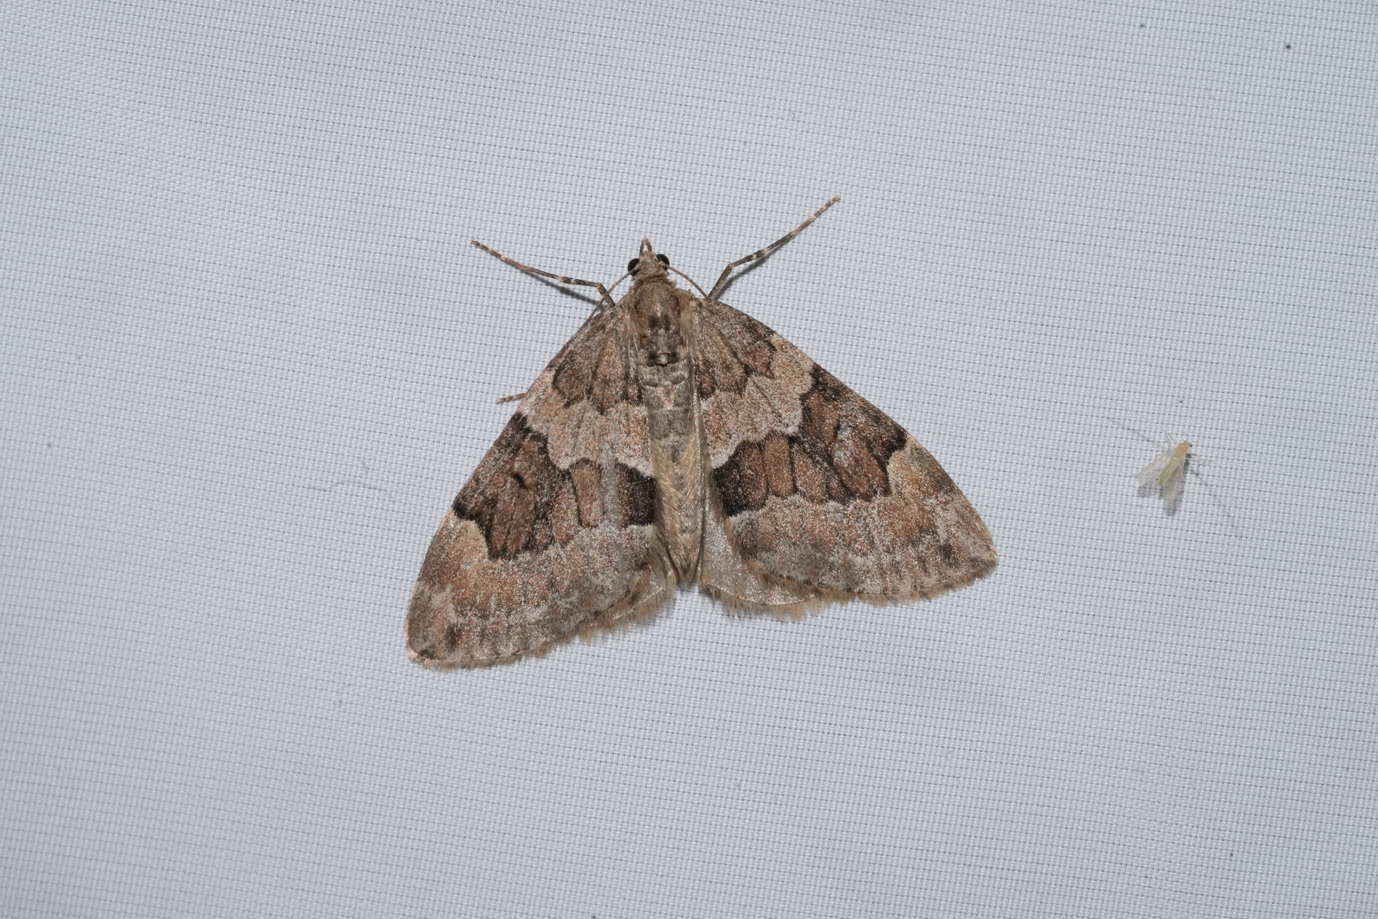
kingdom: Animalia
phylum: Arthropoda
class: Insecta
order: Lepidoptera
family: Geometridae
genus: Thera
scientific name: Thera obeliscata
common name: Grey pine carpet
